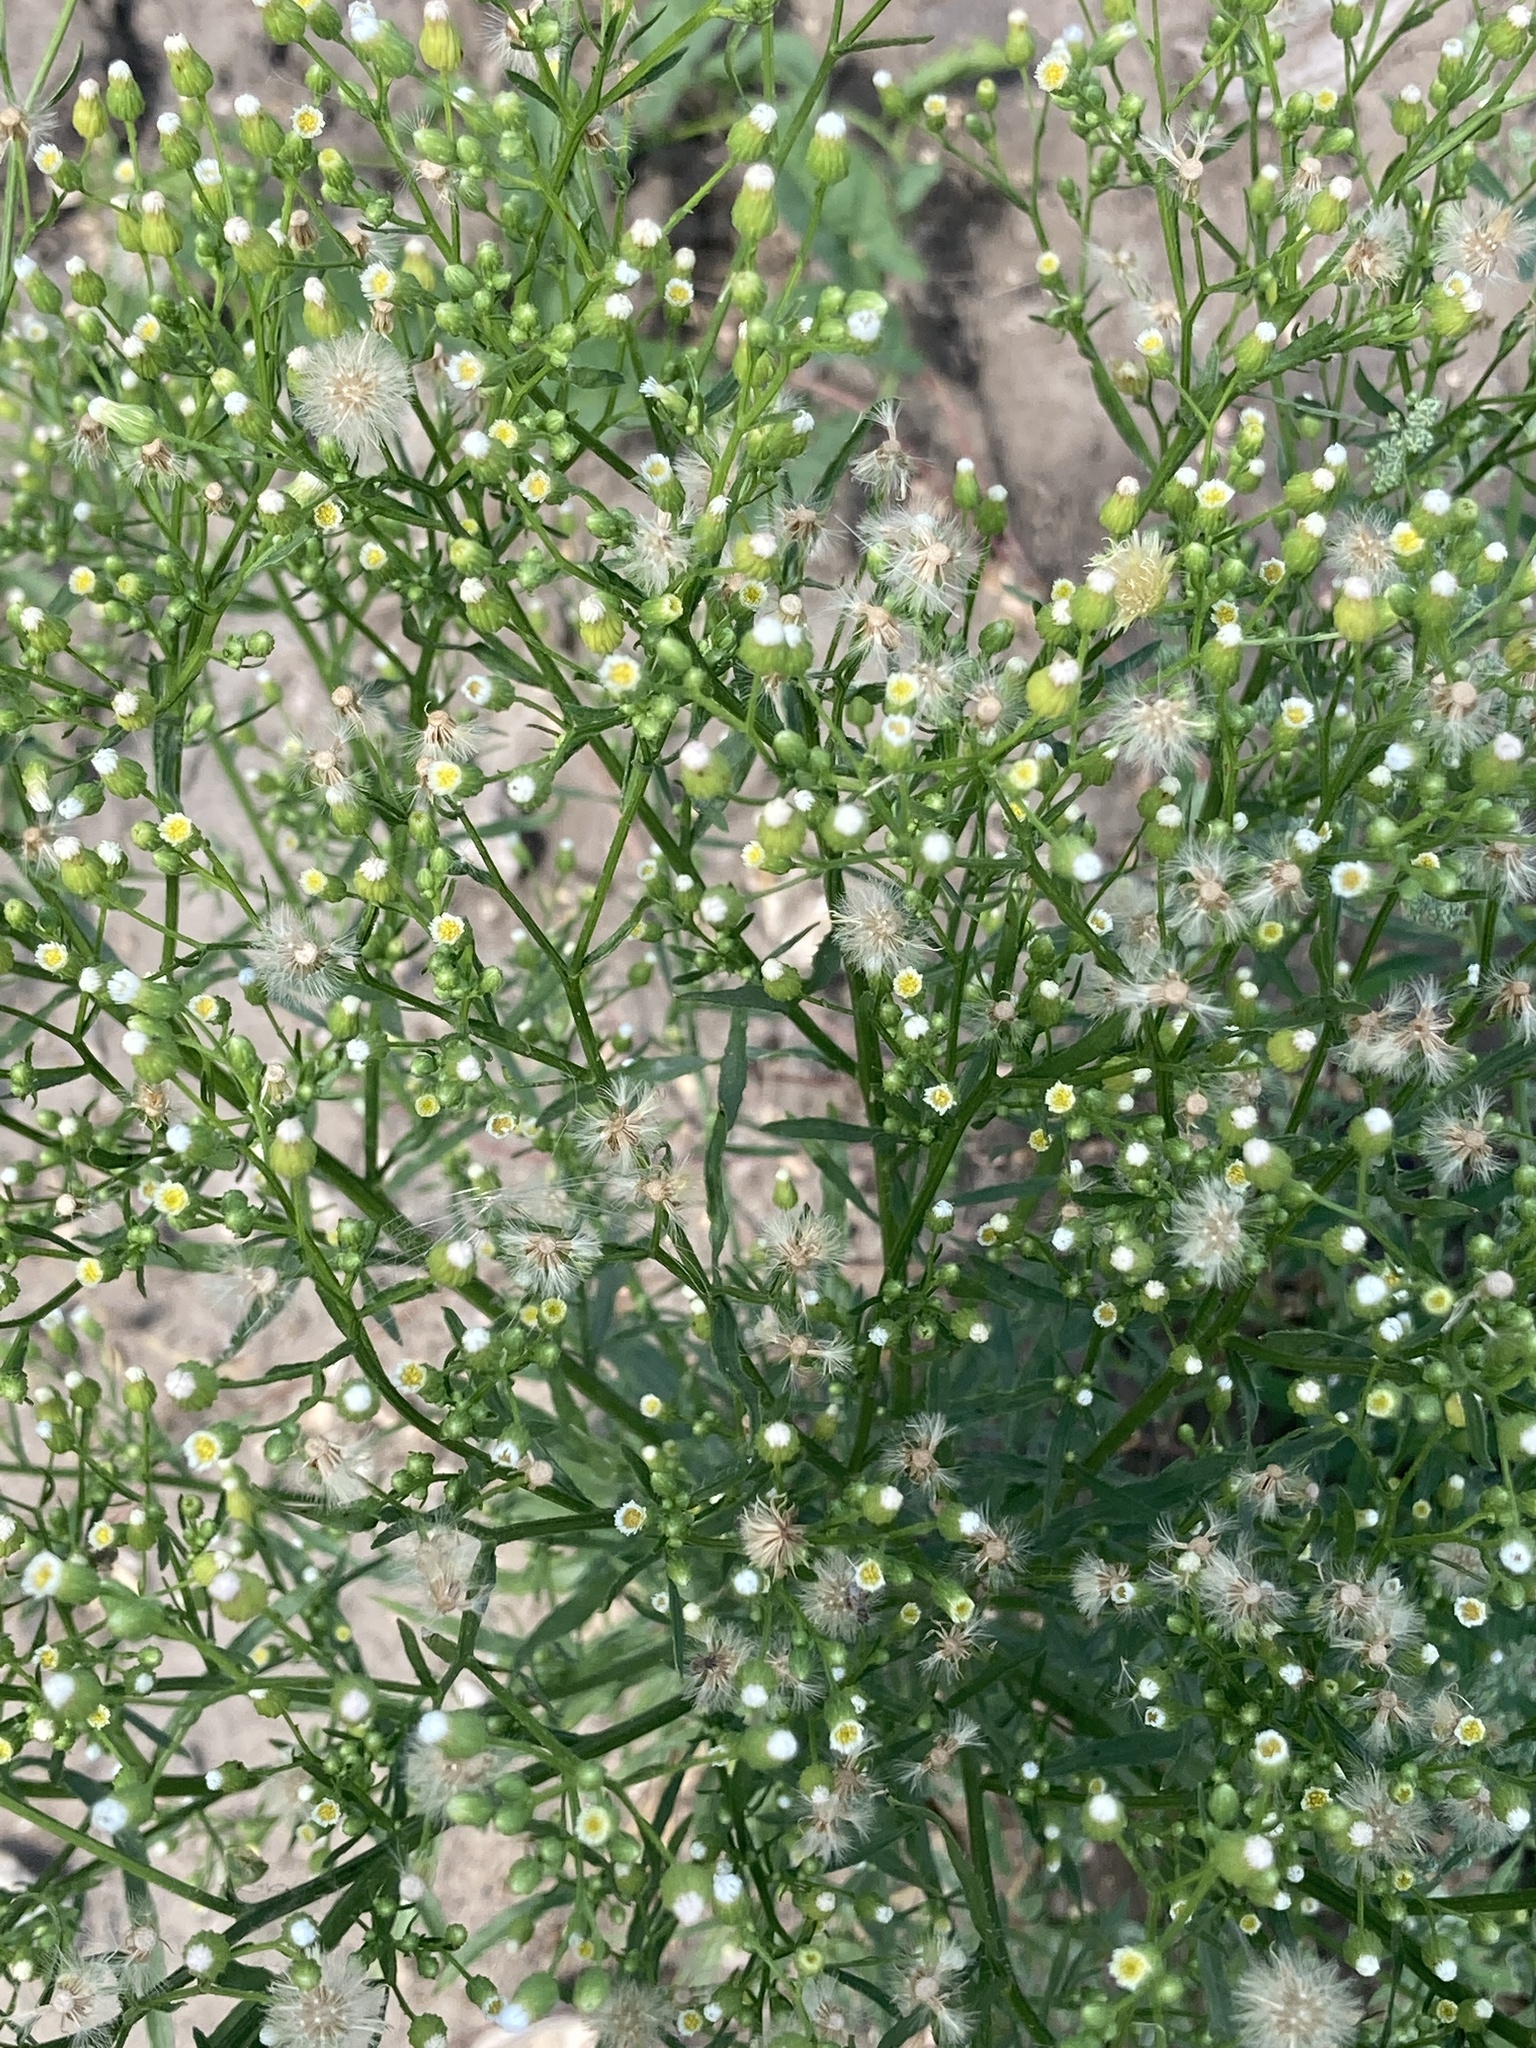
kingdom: Plantae
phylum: Tracheophyta
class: Magnoliopsida
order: Asterales
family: Asteraceae
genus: Erigeron
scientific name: Erigeron canadensis
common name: Canadian fleabane
